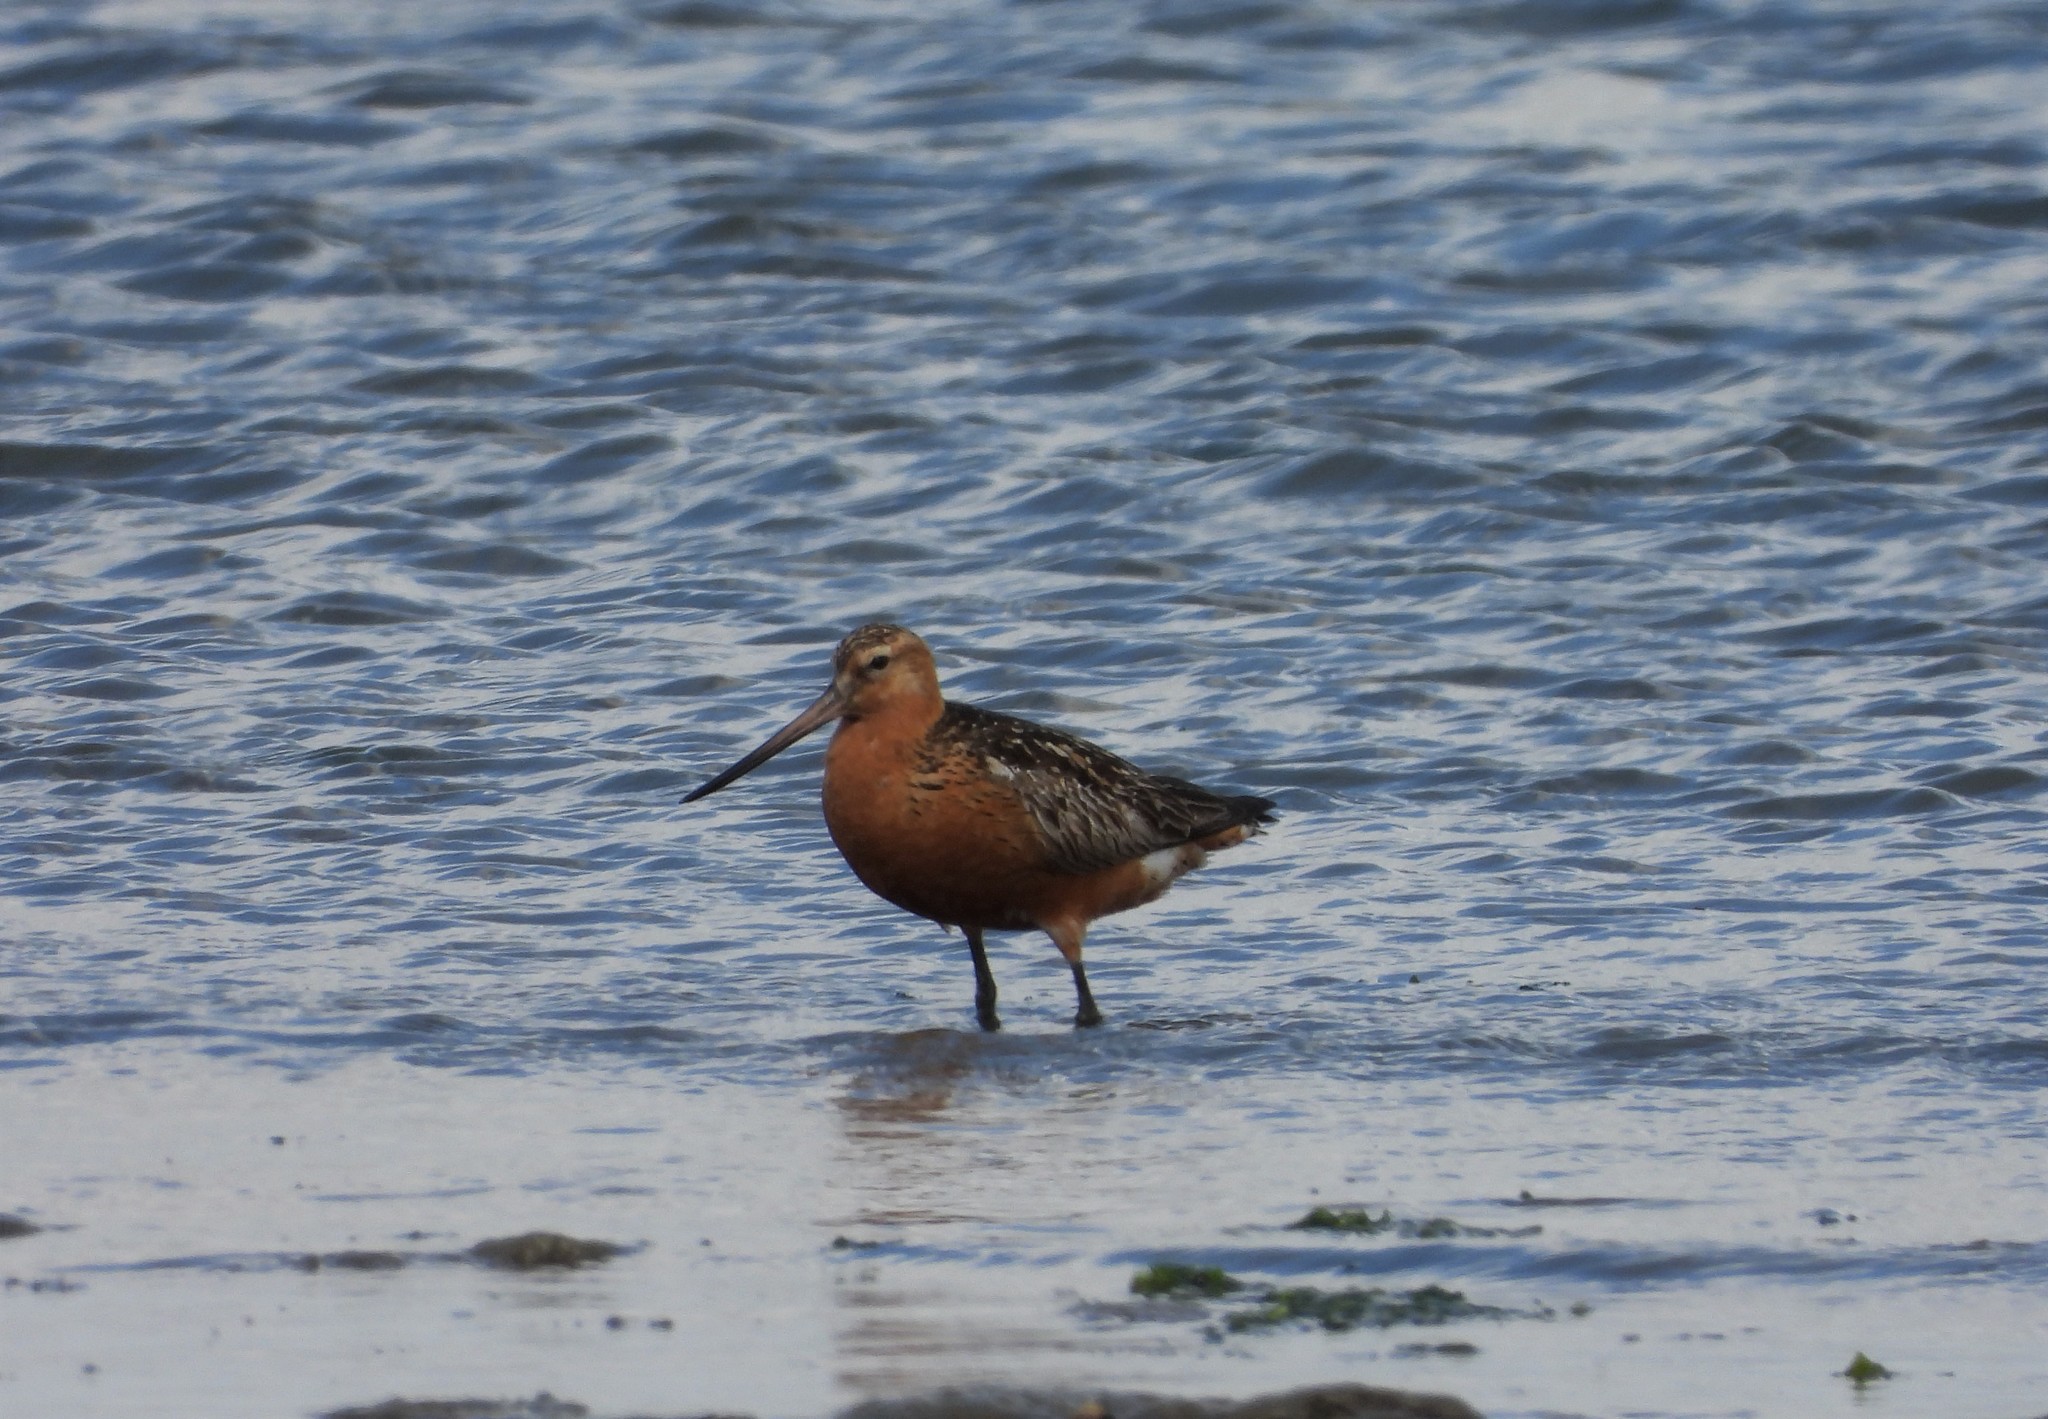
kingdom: Animalia
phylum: Chordata
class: Aves
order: Charadriiformes
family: Scolopacidae
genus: Limosa
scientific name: Limosa lapponica
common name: Bar-tailed godwit
